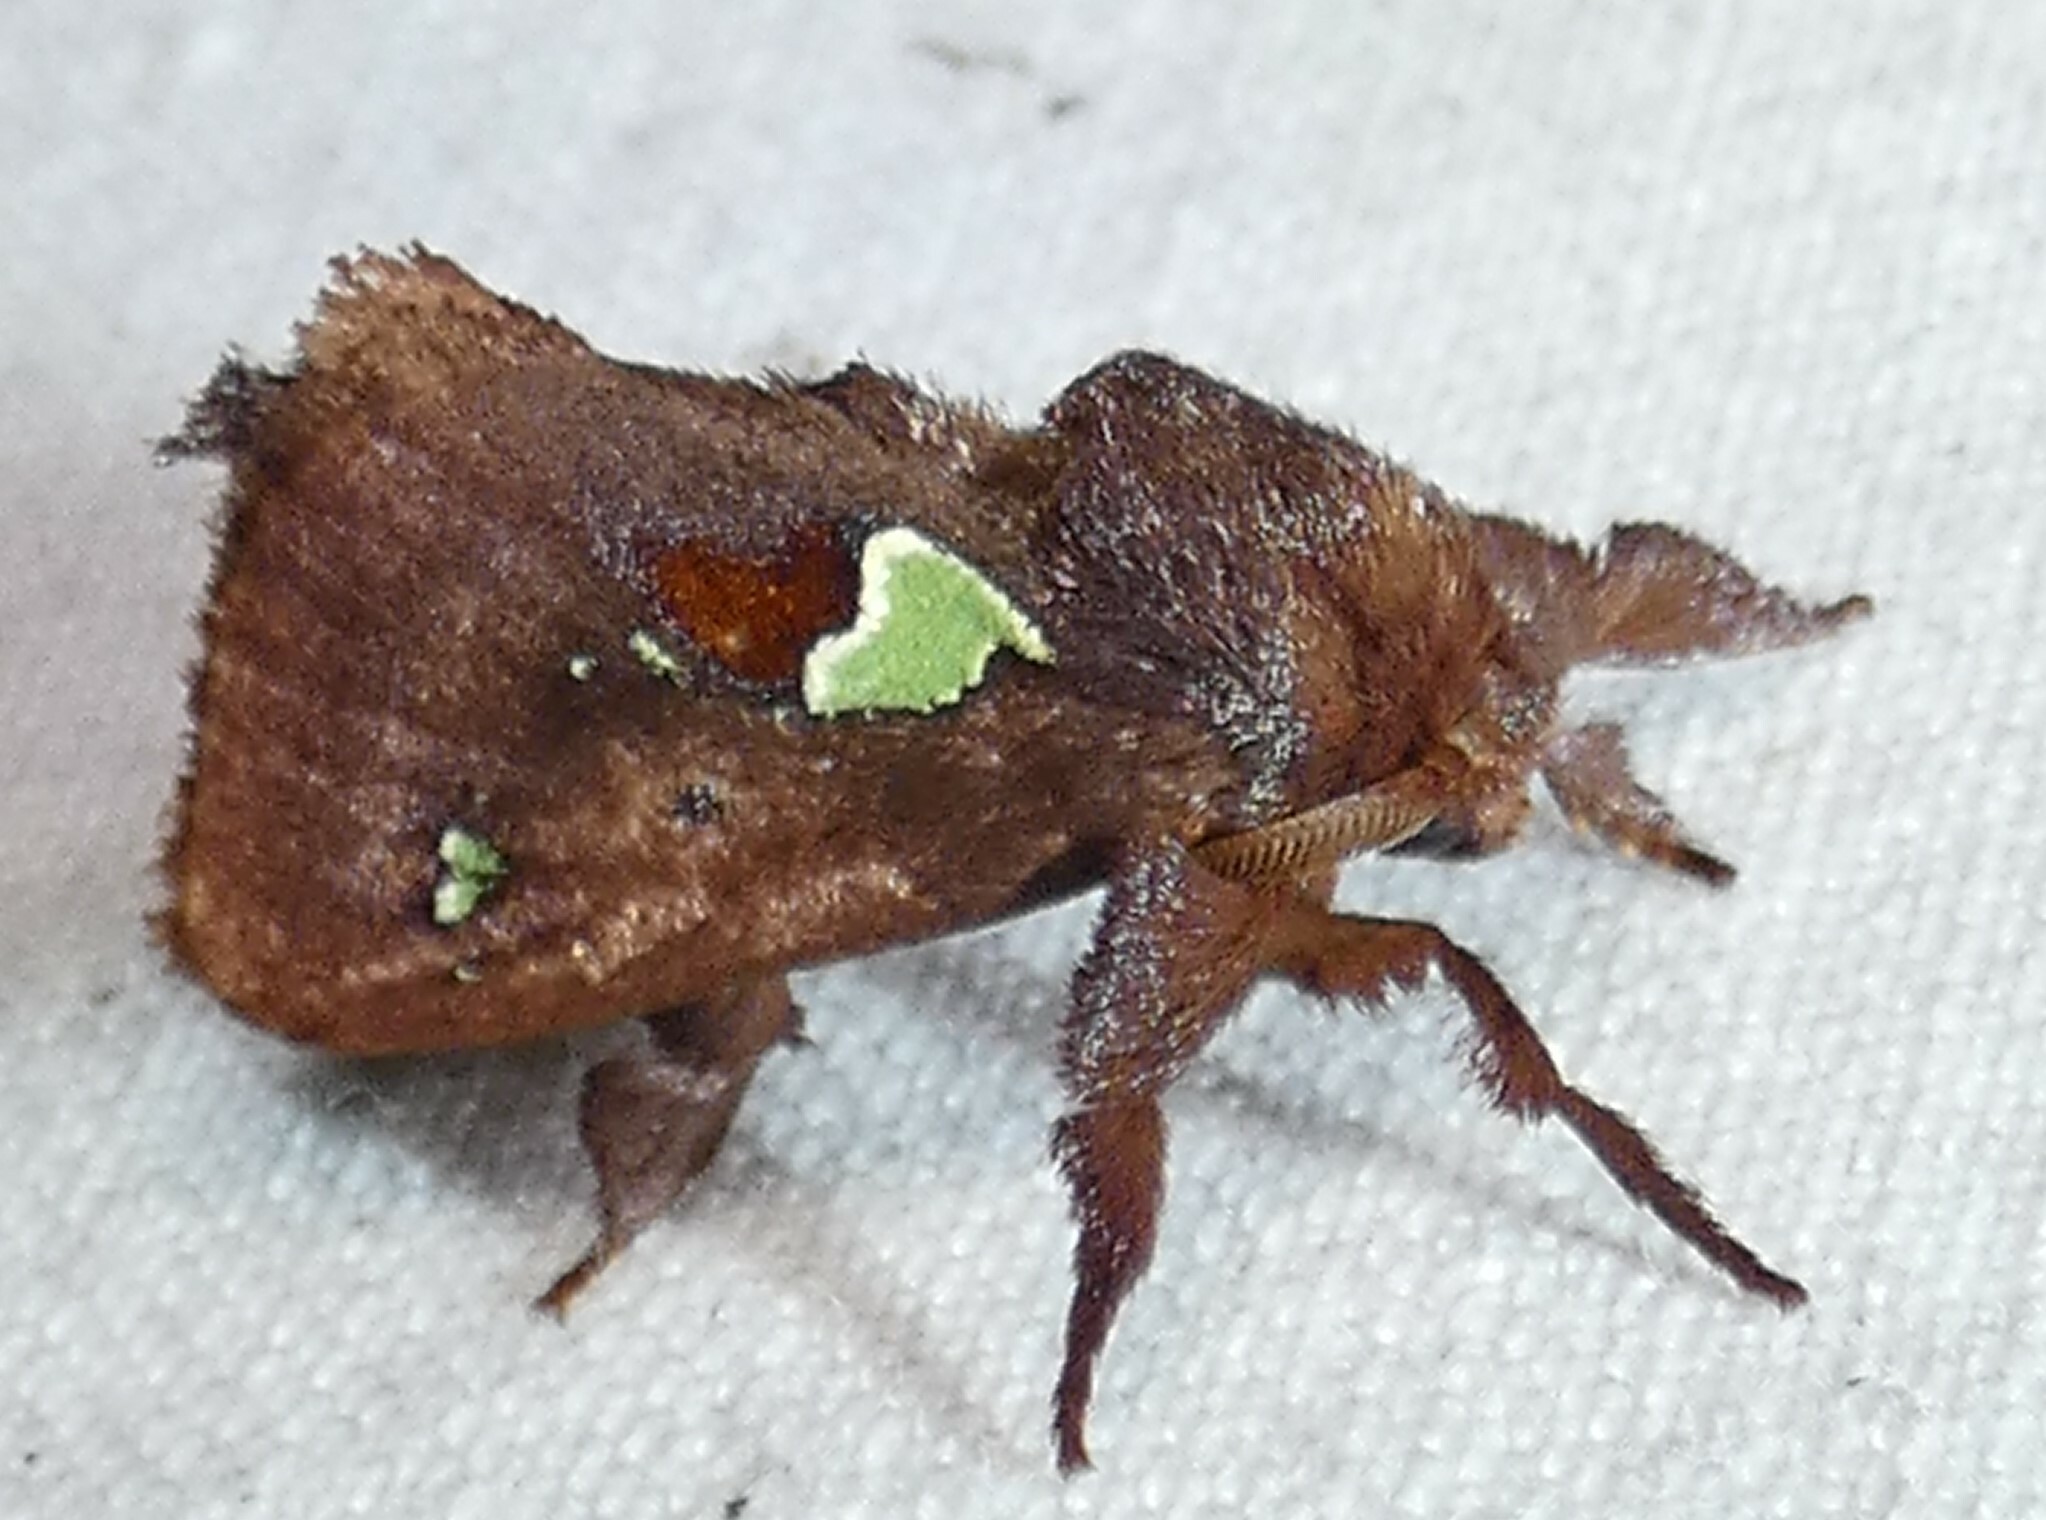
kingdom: Animalia
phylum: Arthropoda
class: Insecta
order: Lepidoptera
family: Limacodidae
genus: Euclea
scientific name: Euclea delphinii
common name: Spiny oak-slug moth
